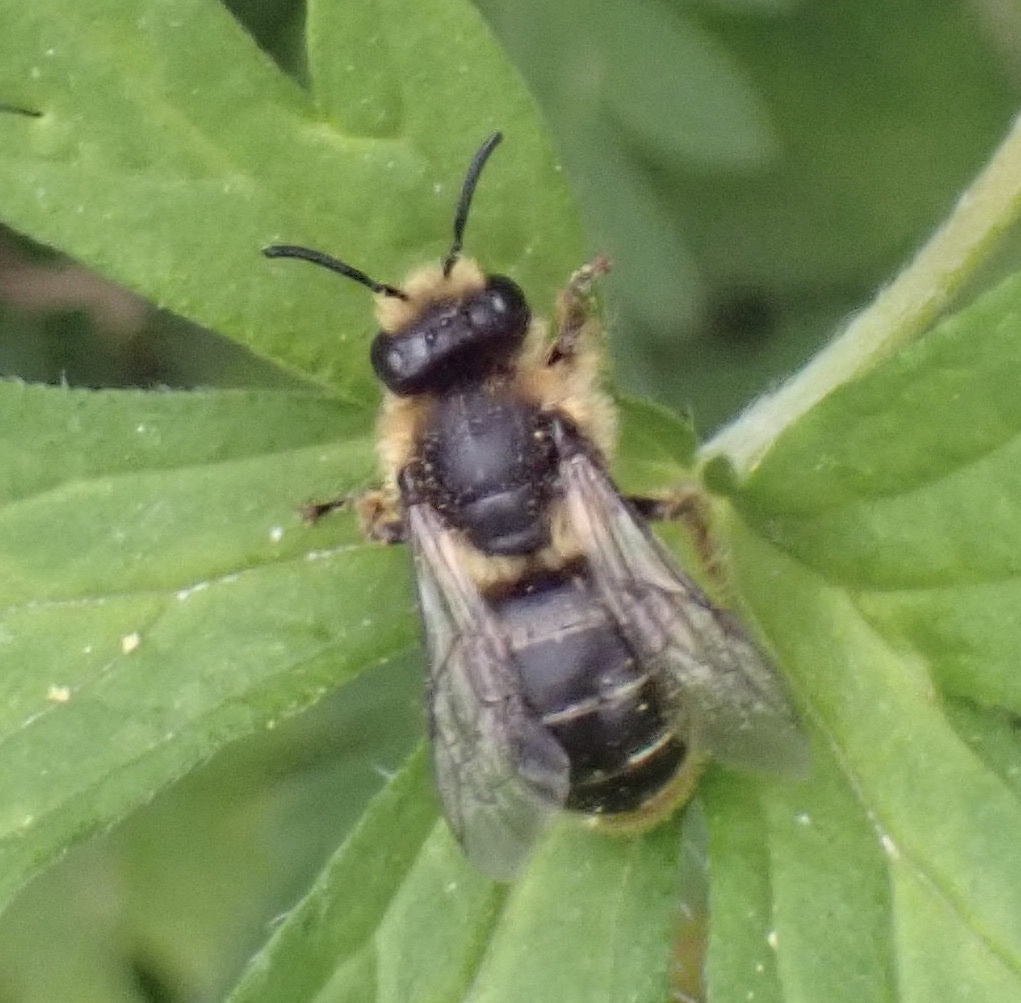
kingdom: Animalia
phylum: Arthropoda
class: Insecta
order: Hymenoptera
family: Melittidae
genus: Melitta
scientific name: Melitta haemorrhoidalis
